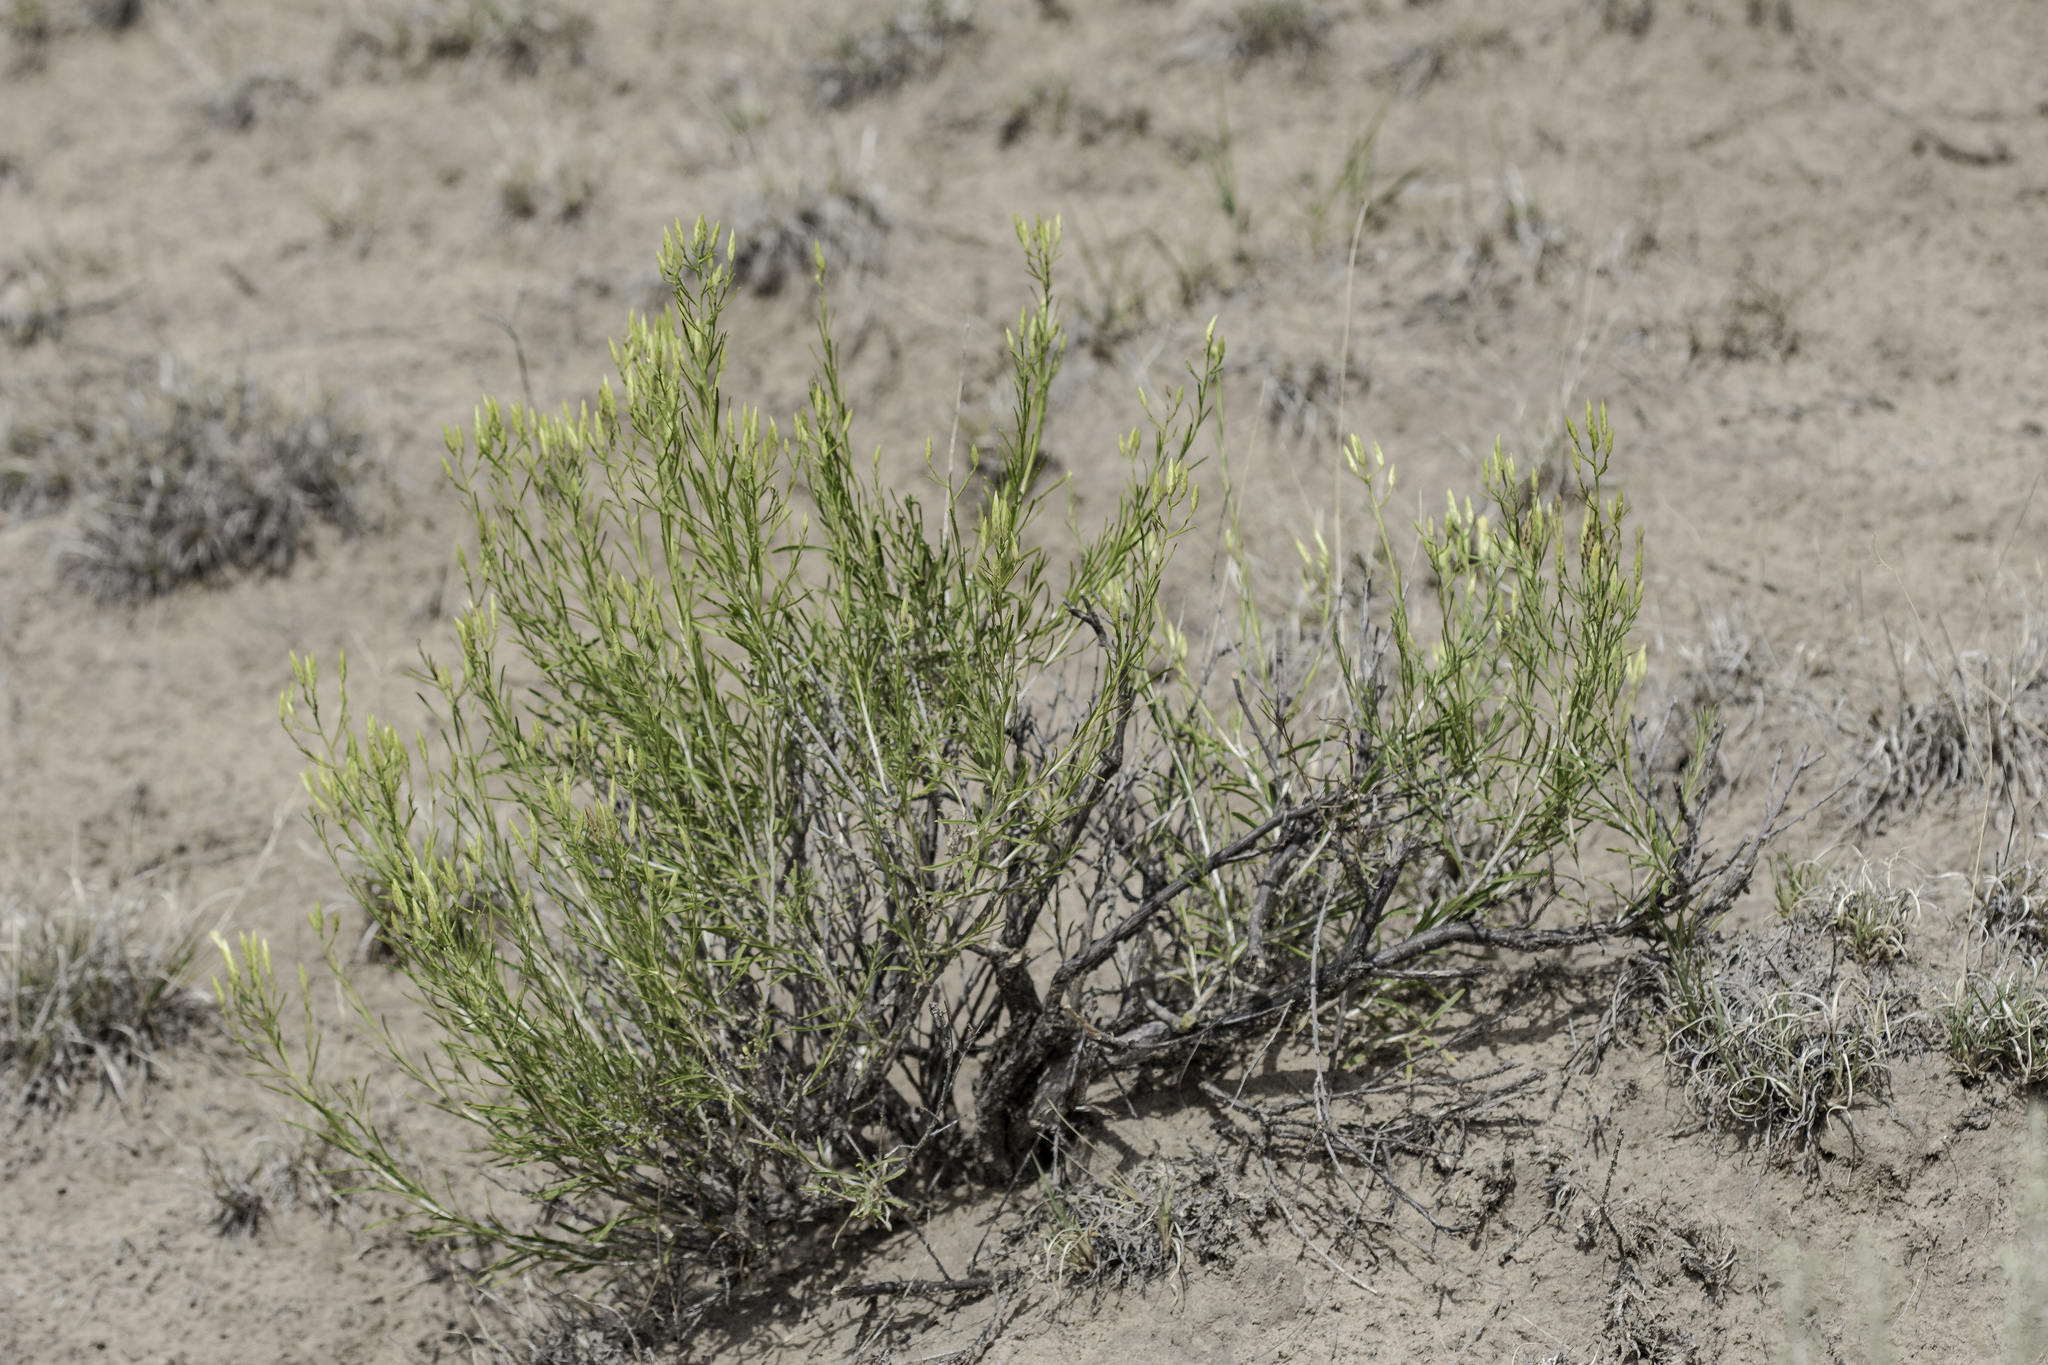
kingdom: Plantae
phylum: Tracheophyta
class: Magnoliopsida
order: Asterales
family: Asteraceae
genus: Lorandersonia
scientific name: Lorandersonia baileyi
